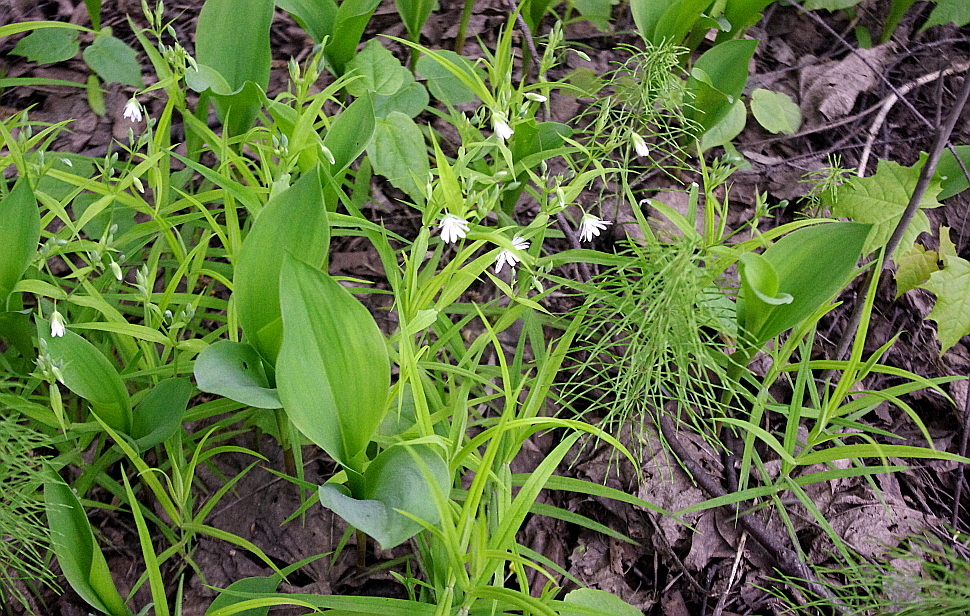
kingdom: Plantae
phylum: Tracheophyta
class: Magnoliopsida
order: Caryophyllales
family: Caryophyllaceae
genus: Rabelera
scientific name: Rabelera holostea
